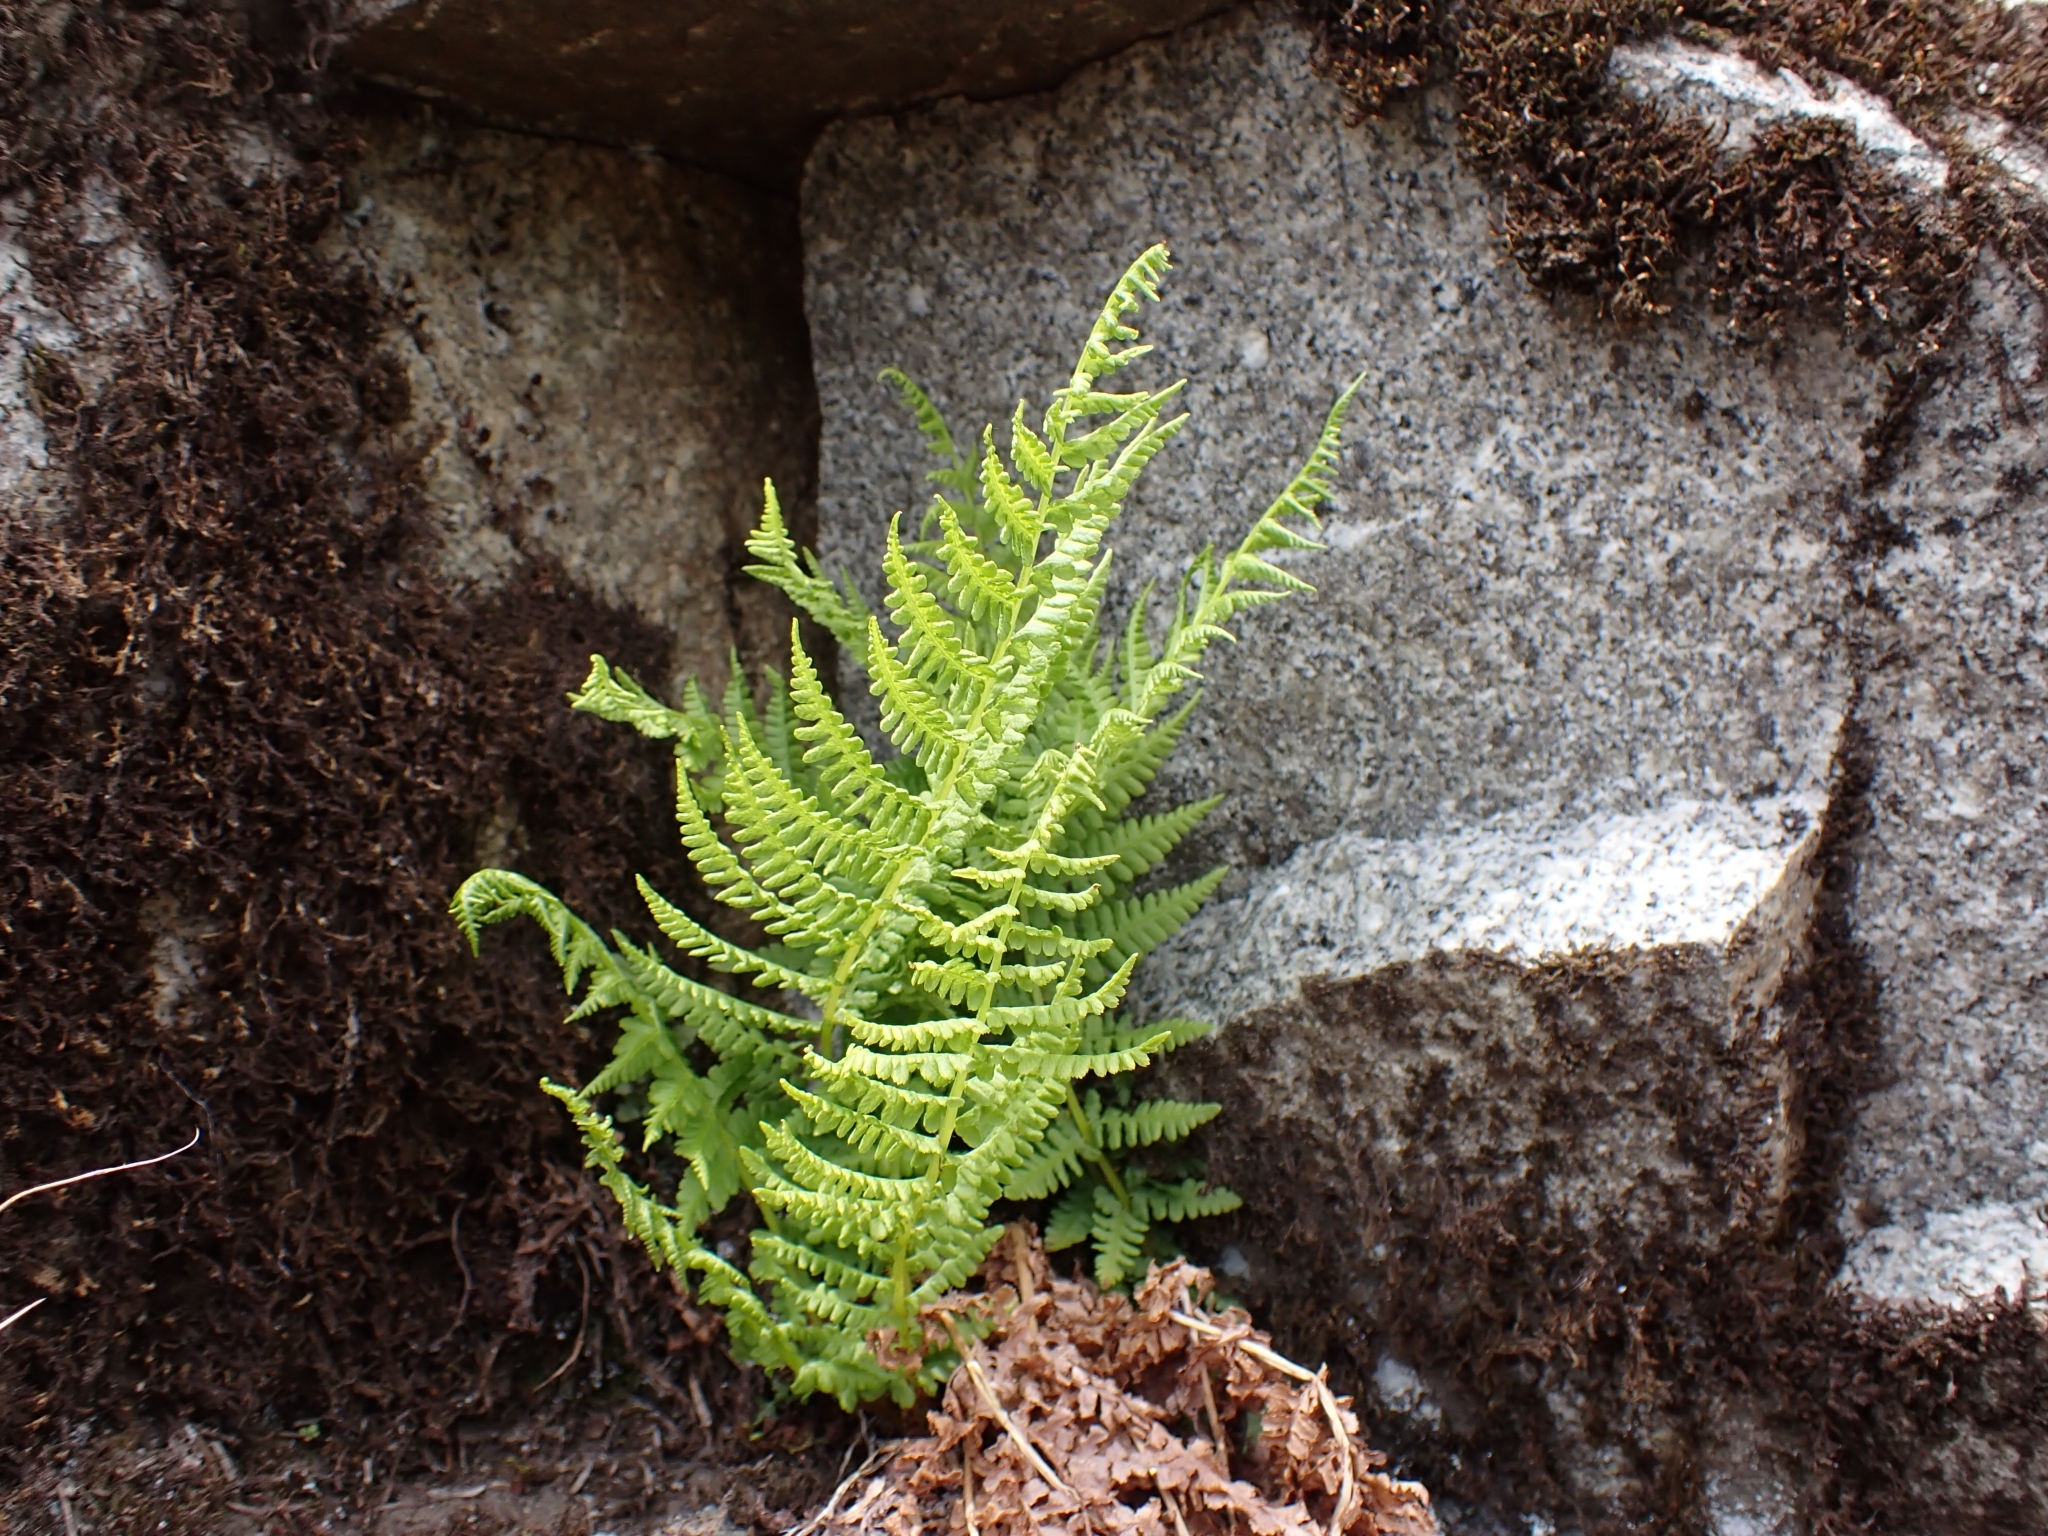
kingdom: Plantae
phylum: Tracheophyta
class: Polypodiopsida
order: Polypodiales
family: Athyriaceae
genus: Athyrium
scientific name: Athyrium filix-femina
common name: Lady fern
